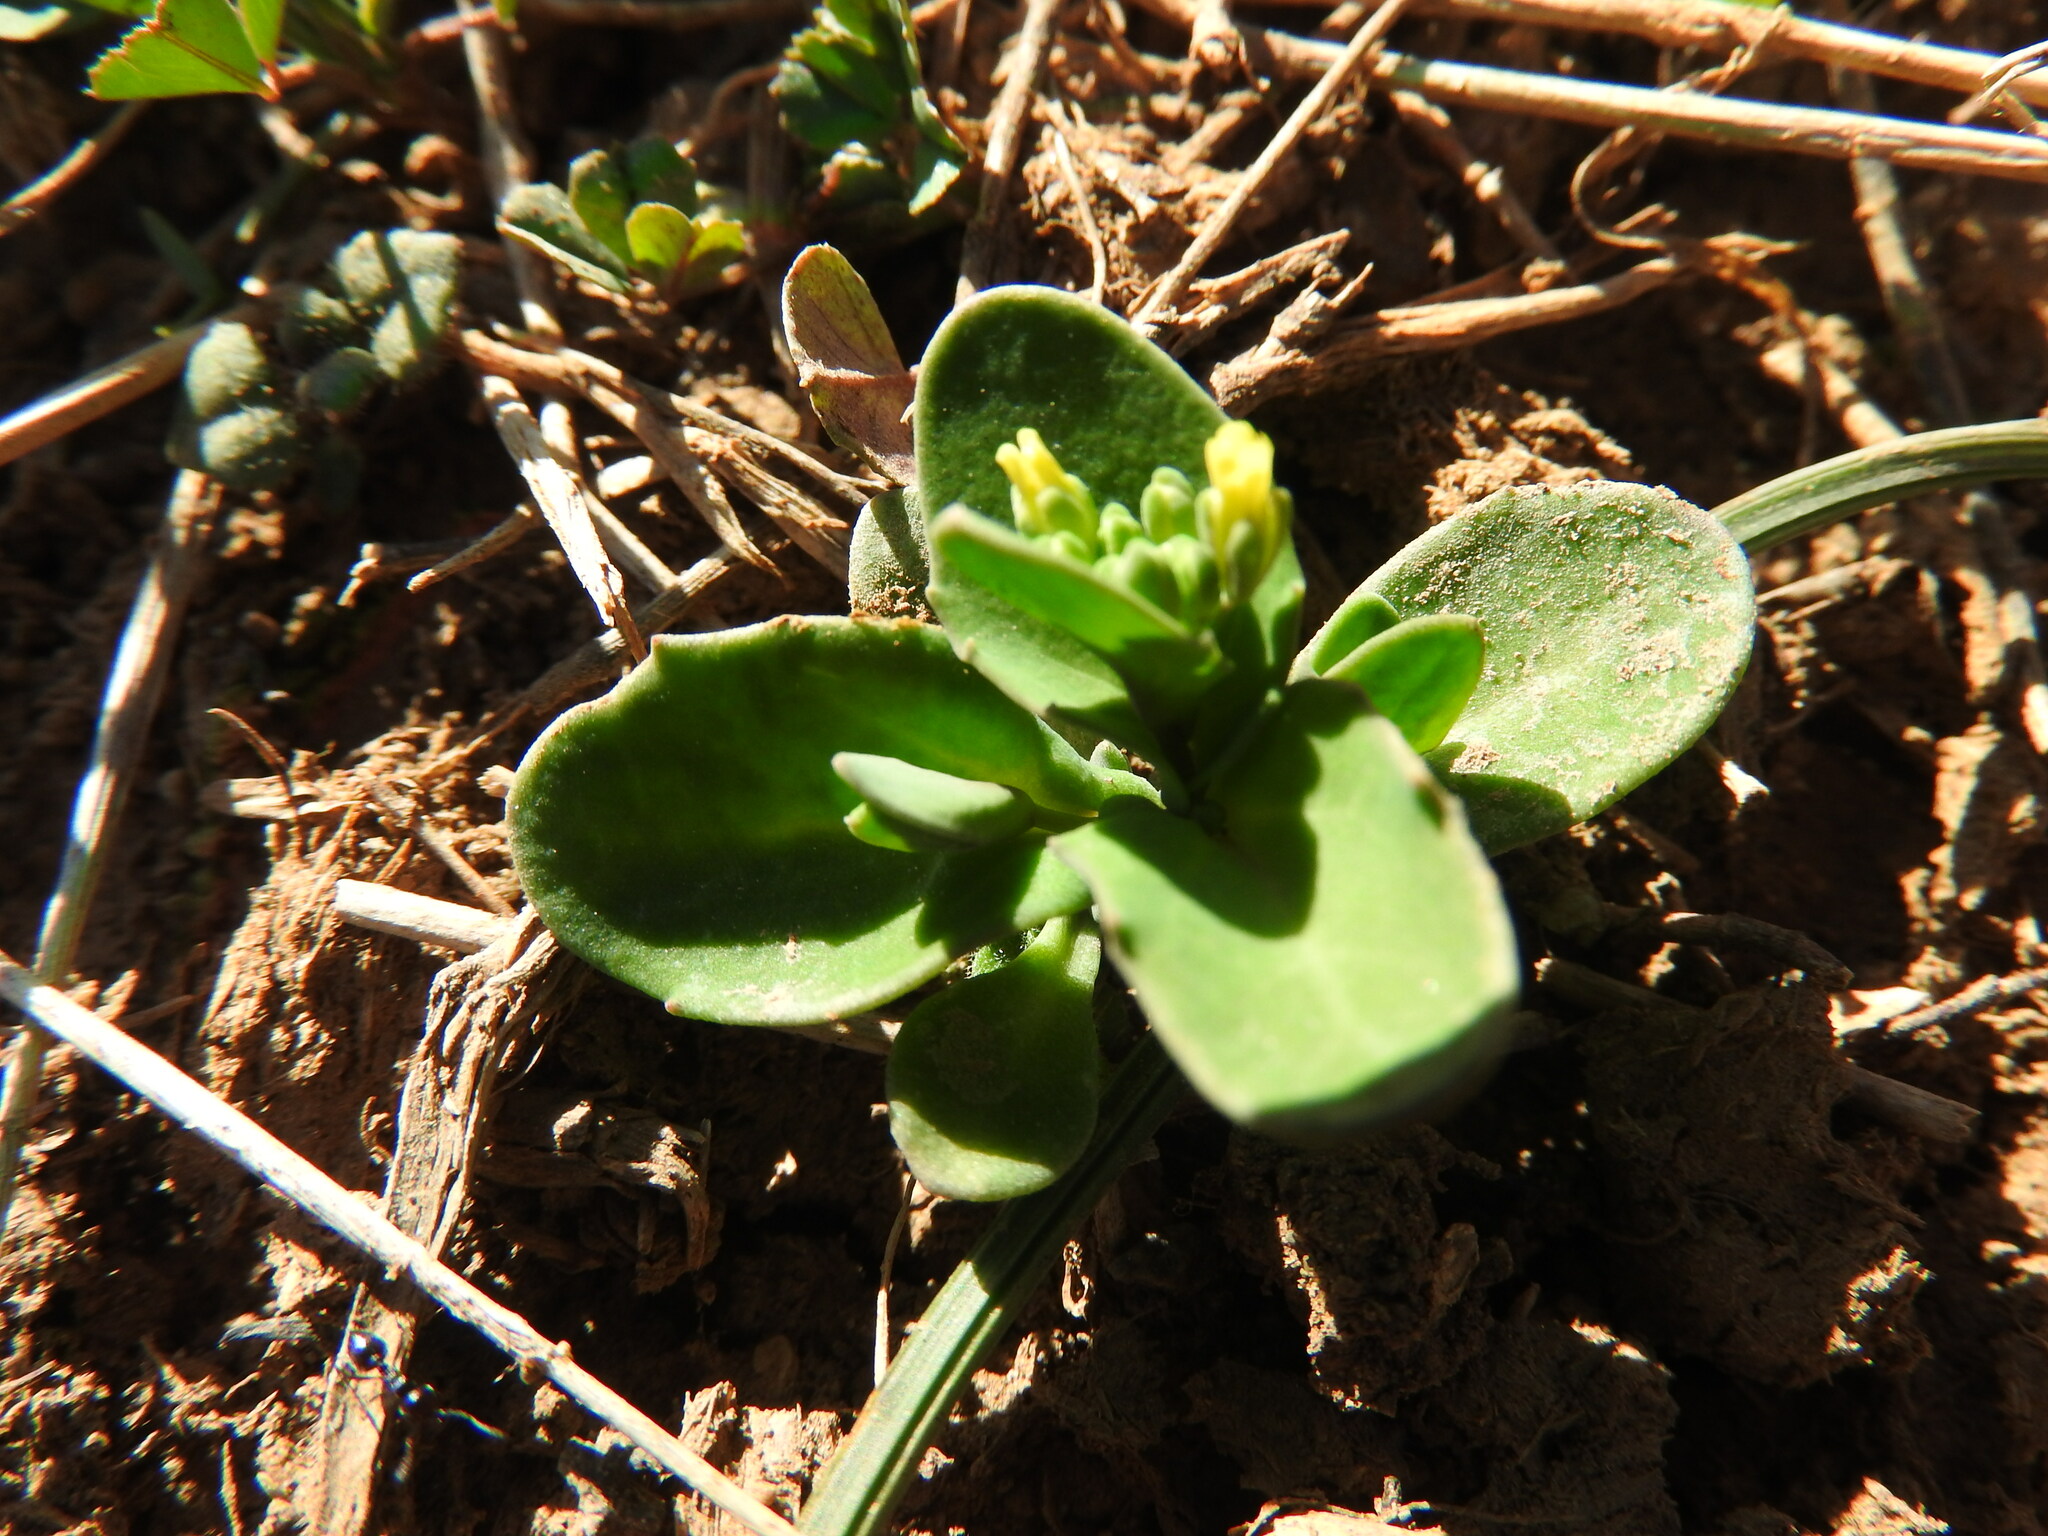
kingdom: Plantae
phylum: Tracheophyta
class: Magnoliopsida
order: Brassicales
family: Brassicaceae
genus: Bivonaea
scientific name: Bivonaea lutea
